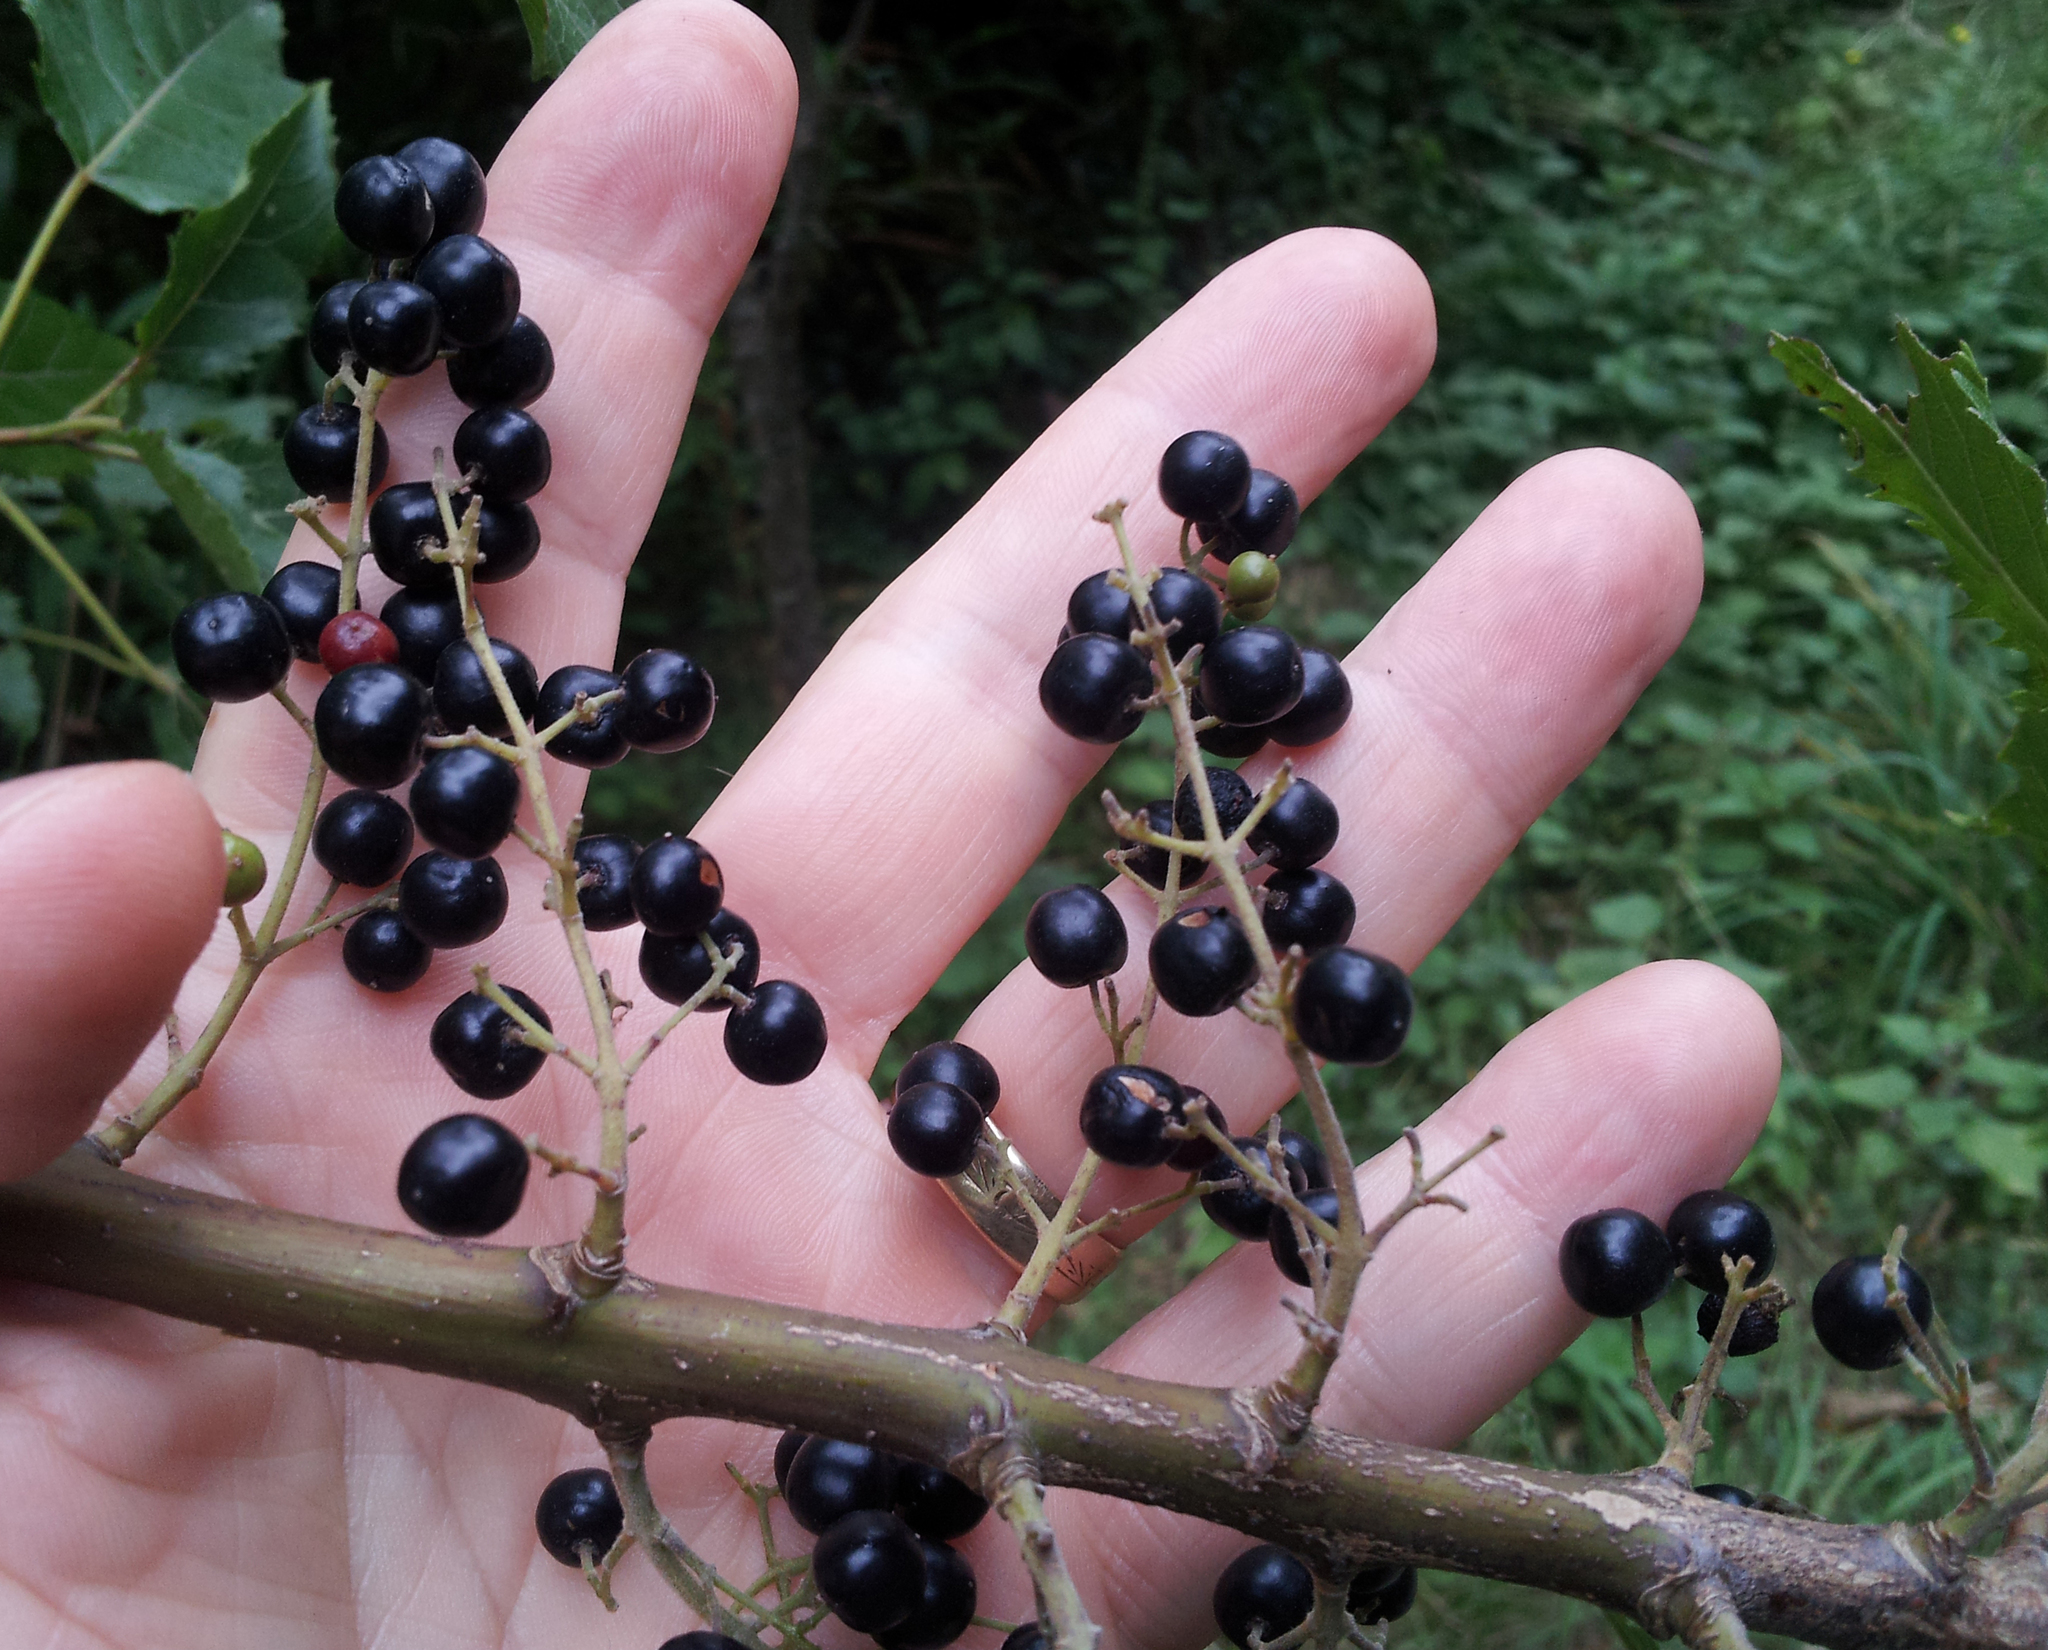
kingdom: Plantae
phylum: Tracheophyta
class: Magnoliopsida
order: Oxalidales
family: Elaeocarpaceae
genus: Aristotelia
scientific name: Aristotelia serrata
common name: New zealand wineberry
